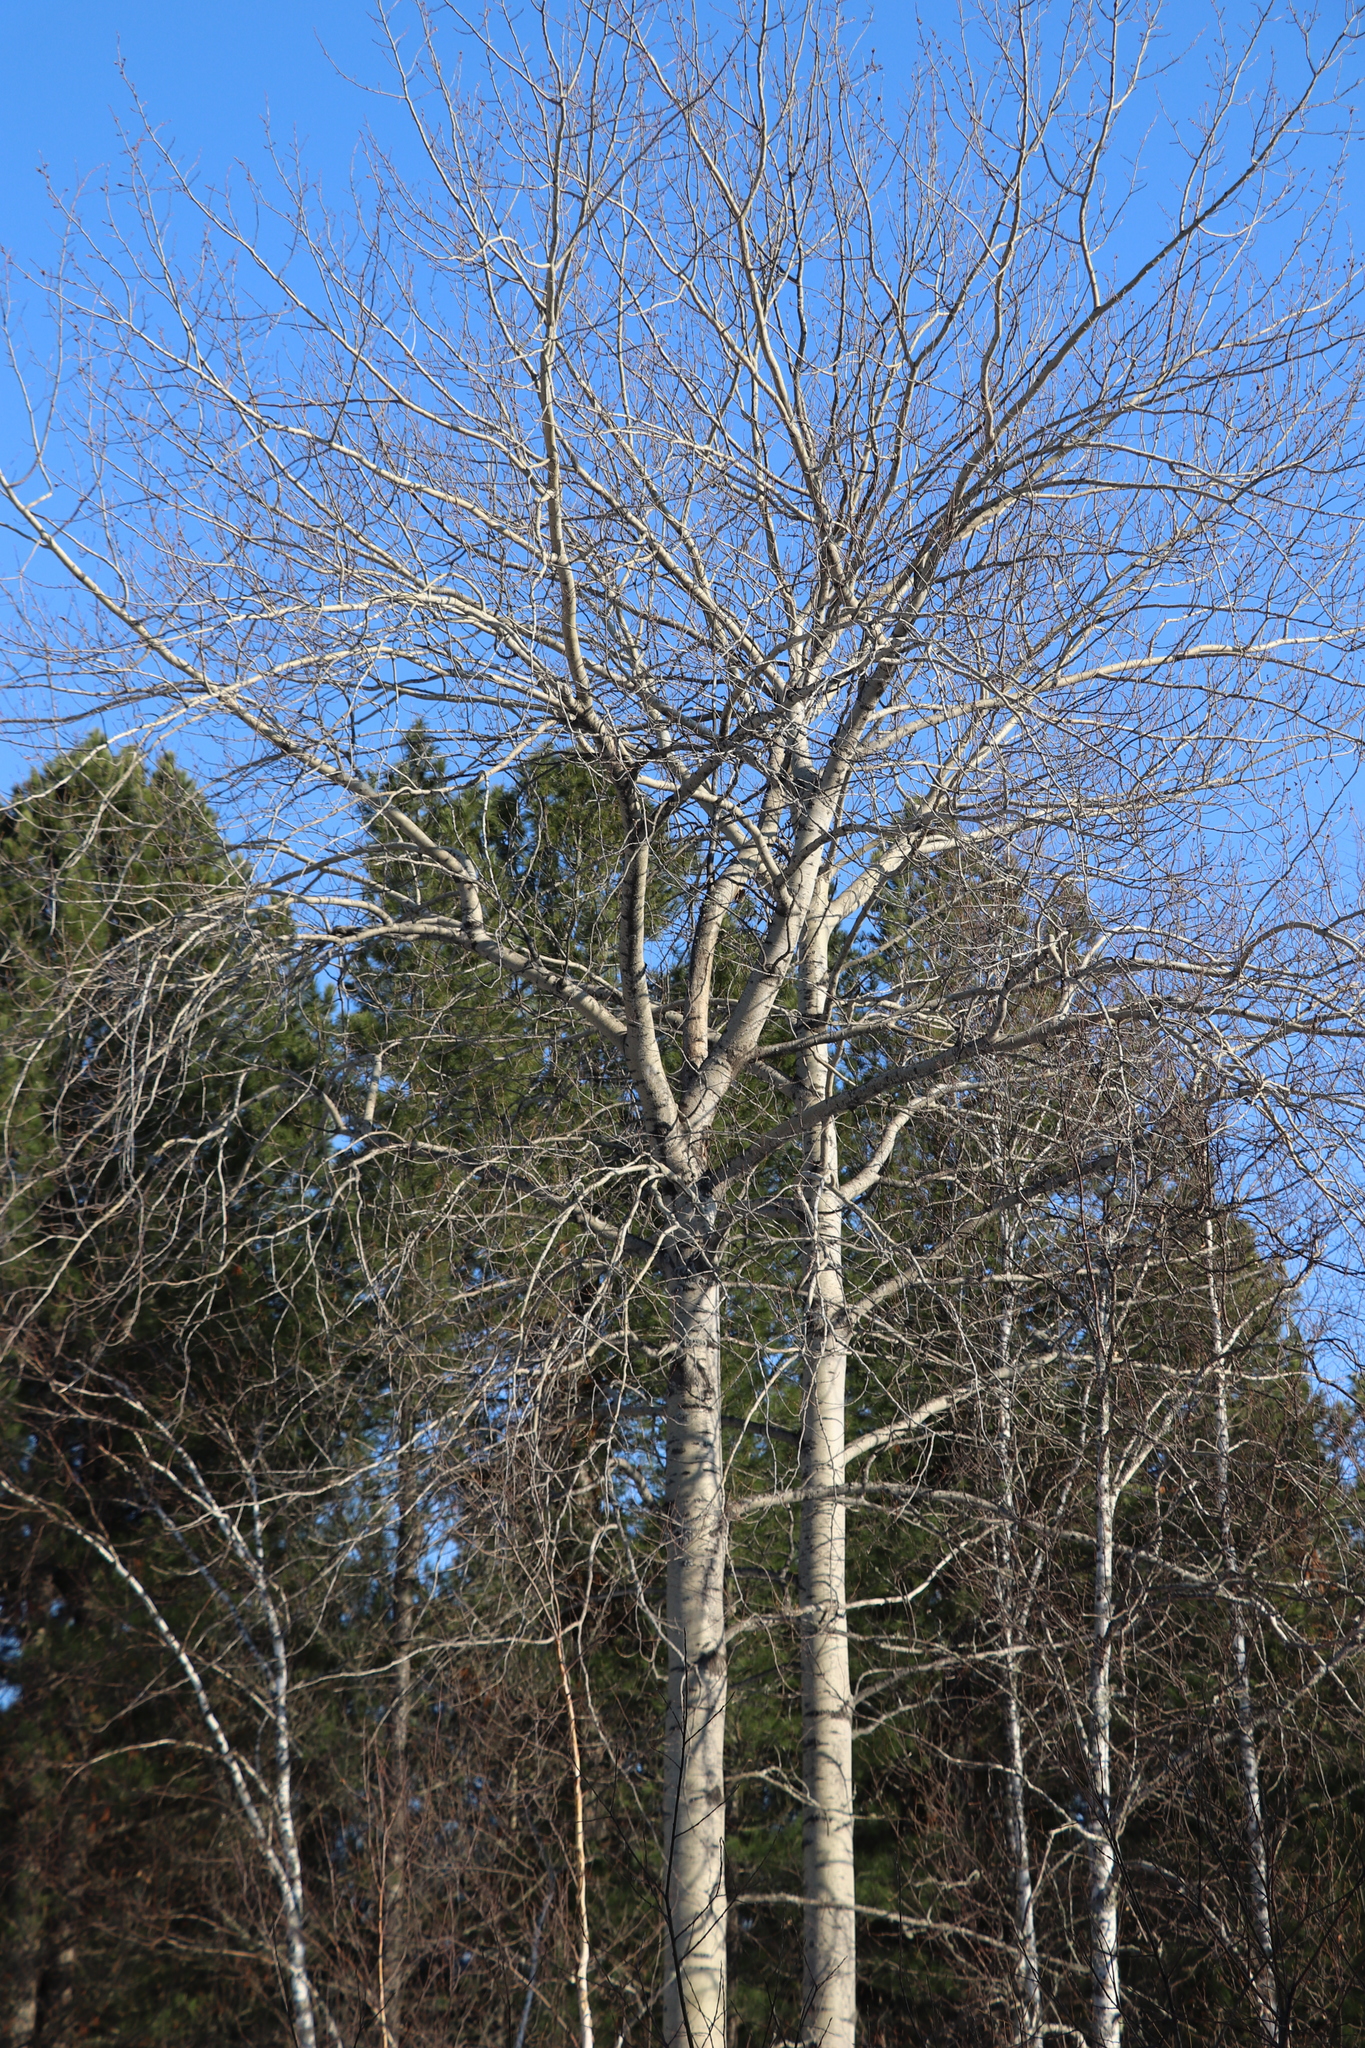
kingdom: Plantae
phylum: Tracheophyta
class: Magnoliopsida
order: Malpighiales
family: Salicaceae
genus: Populus
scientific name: Populus tremula
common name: European aspen
